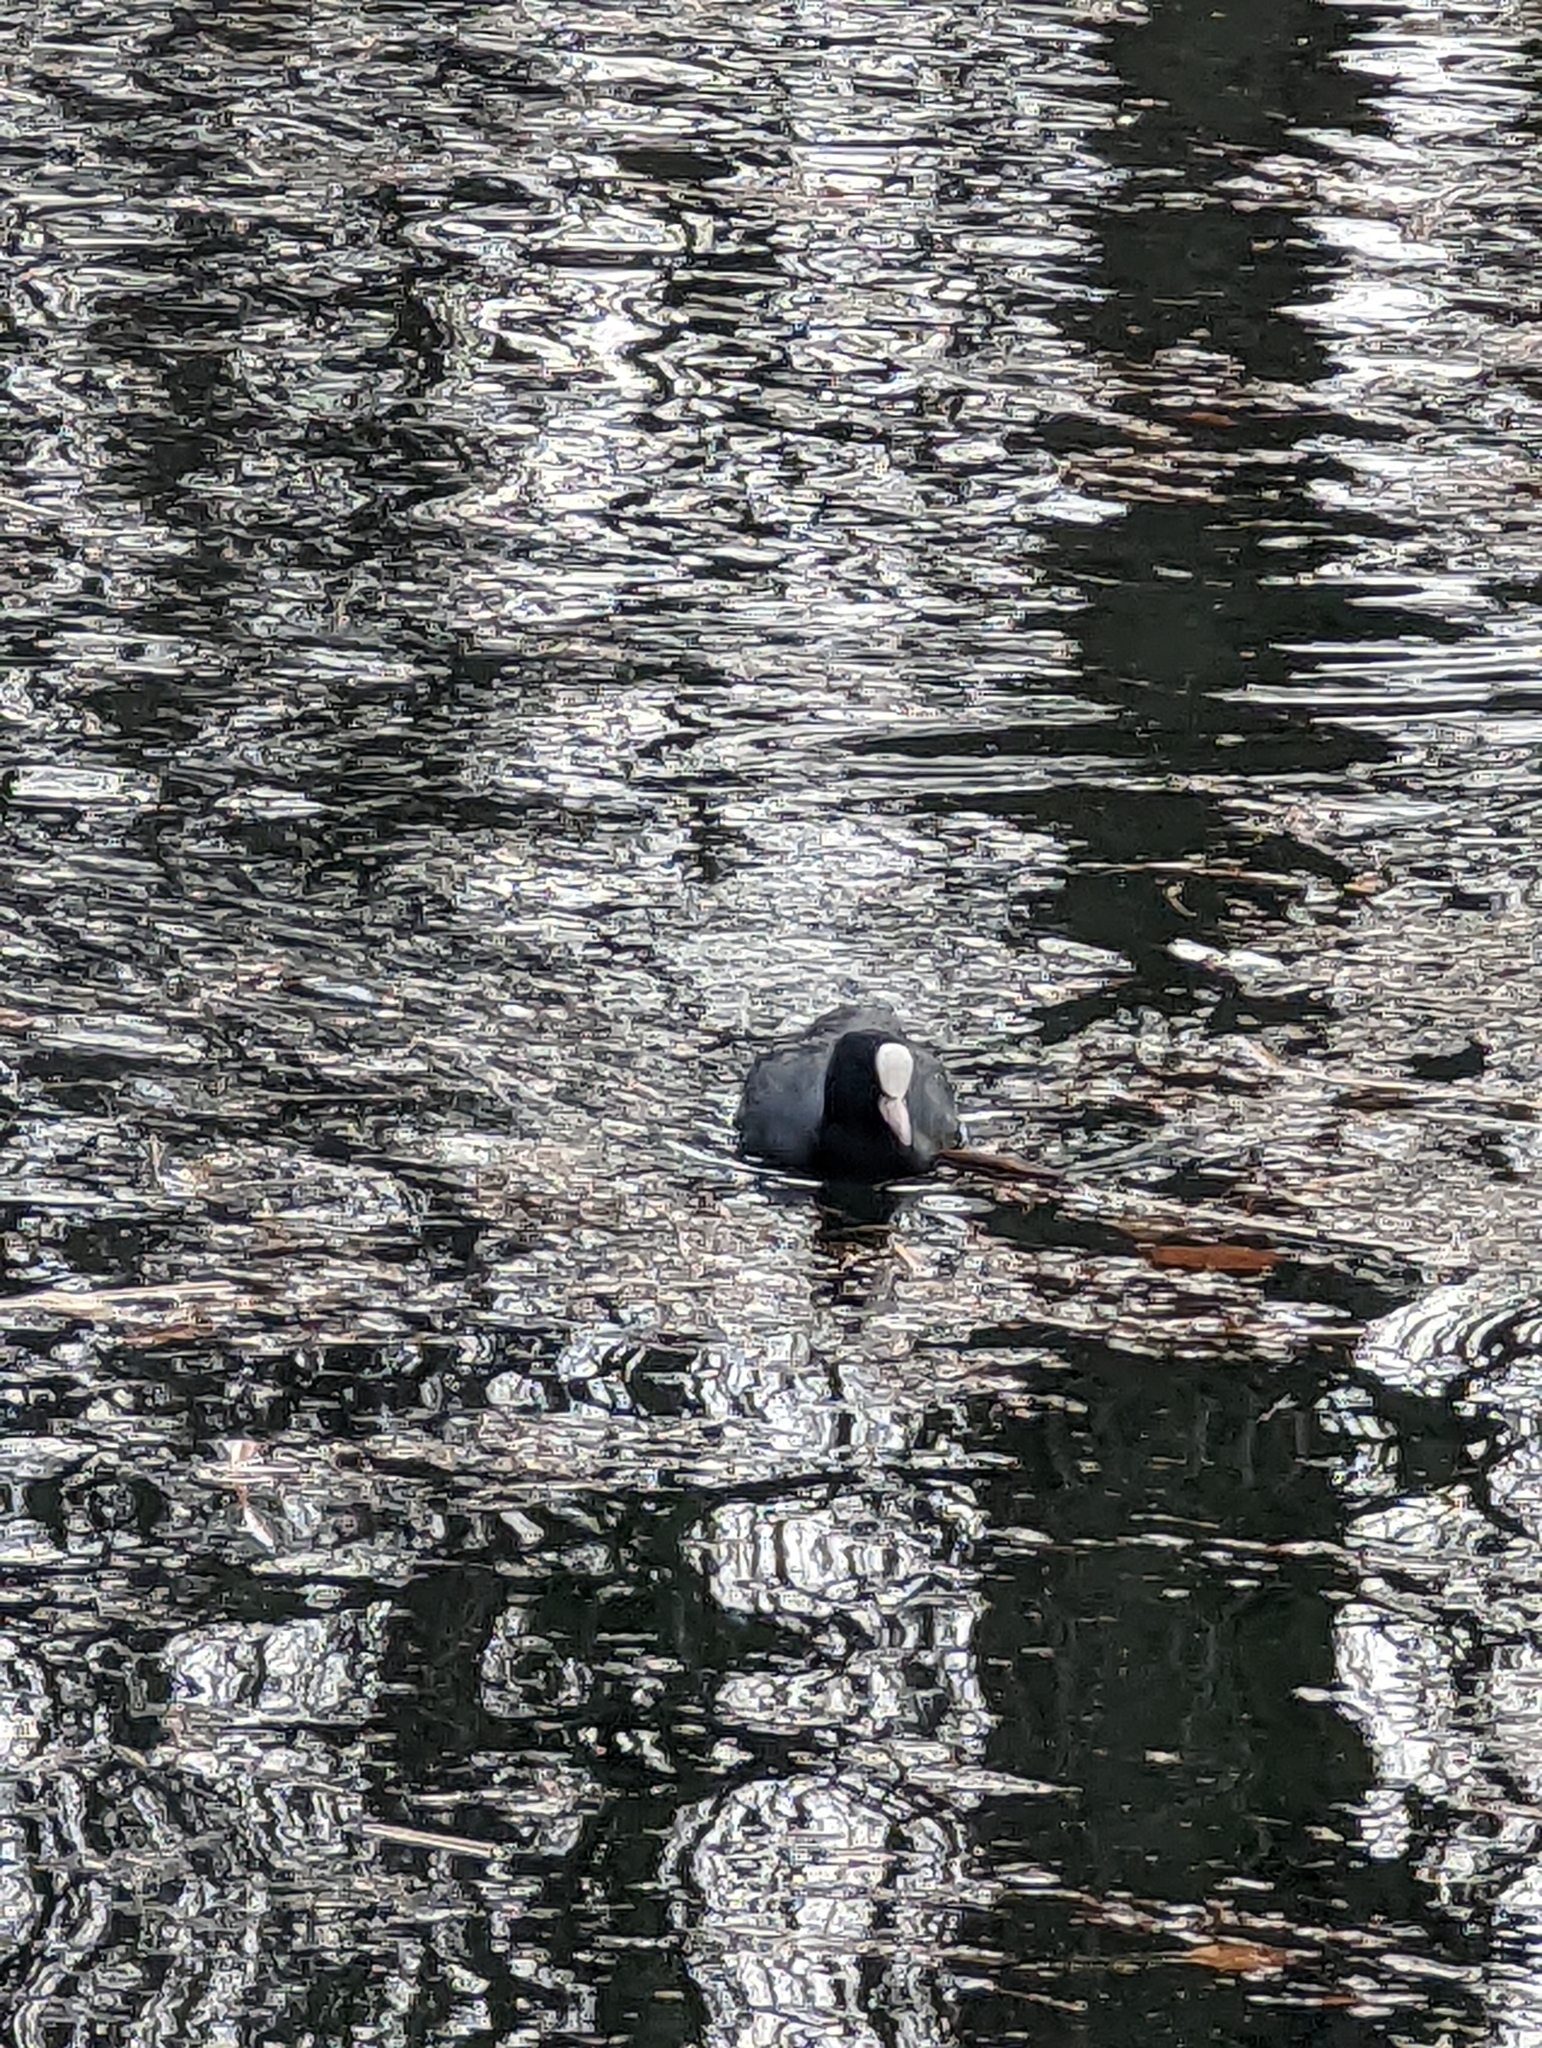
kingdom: Animalia
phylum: Chordata
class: Aves
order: Gruiformes
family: Rallidae
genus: Fulica
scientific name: Fulica atra
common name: Eurasian coot
